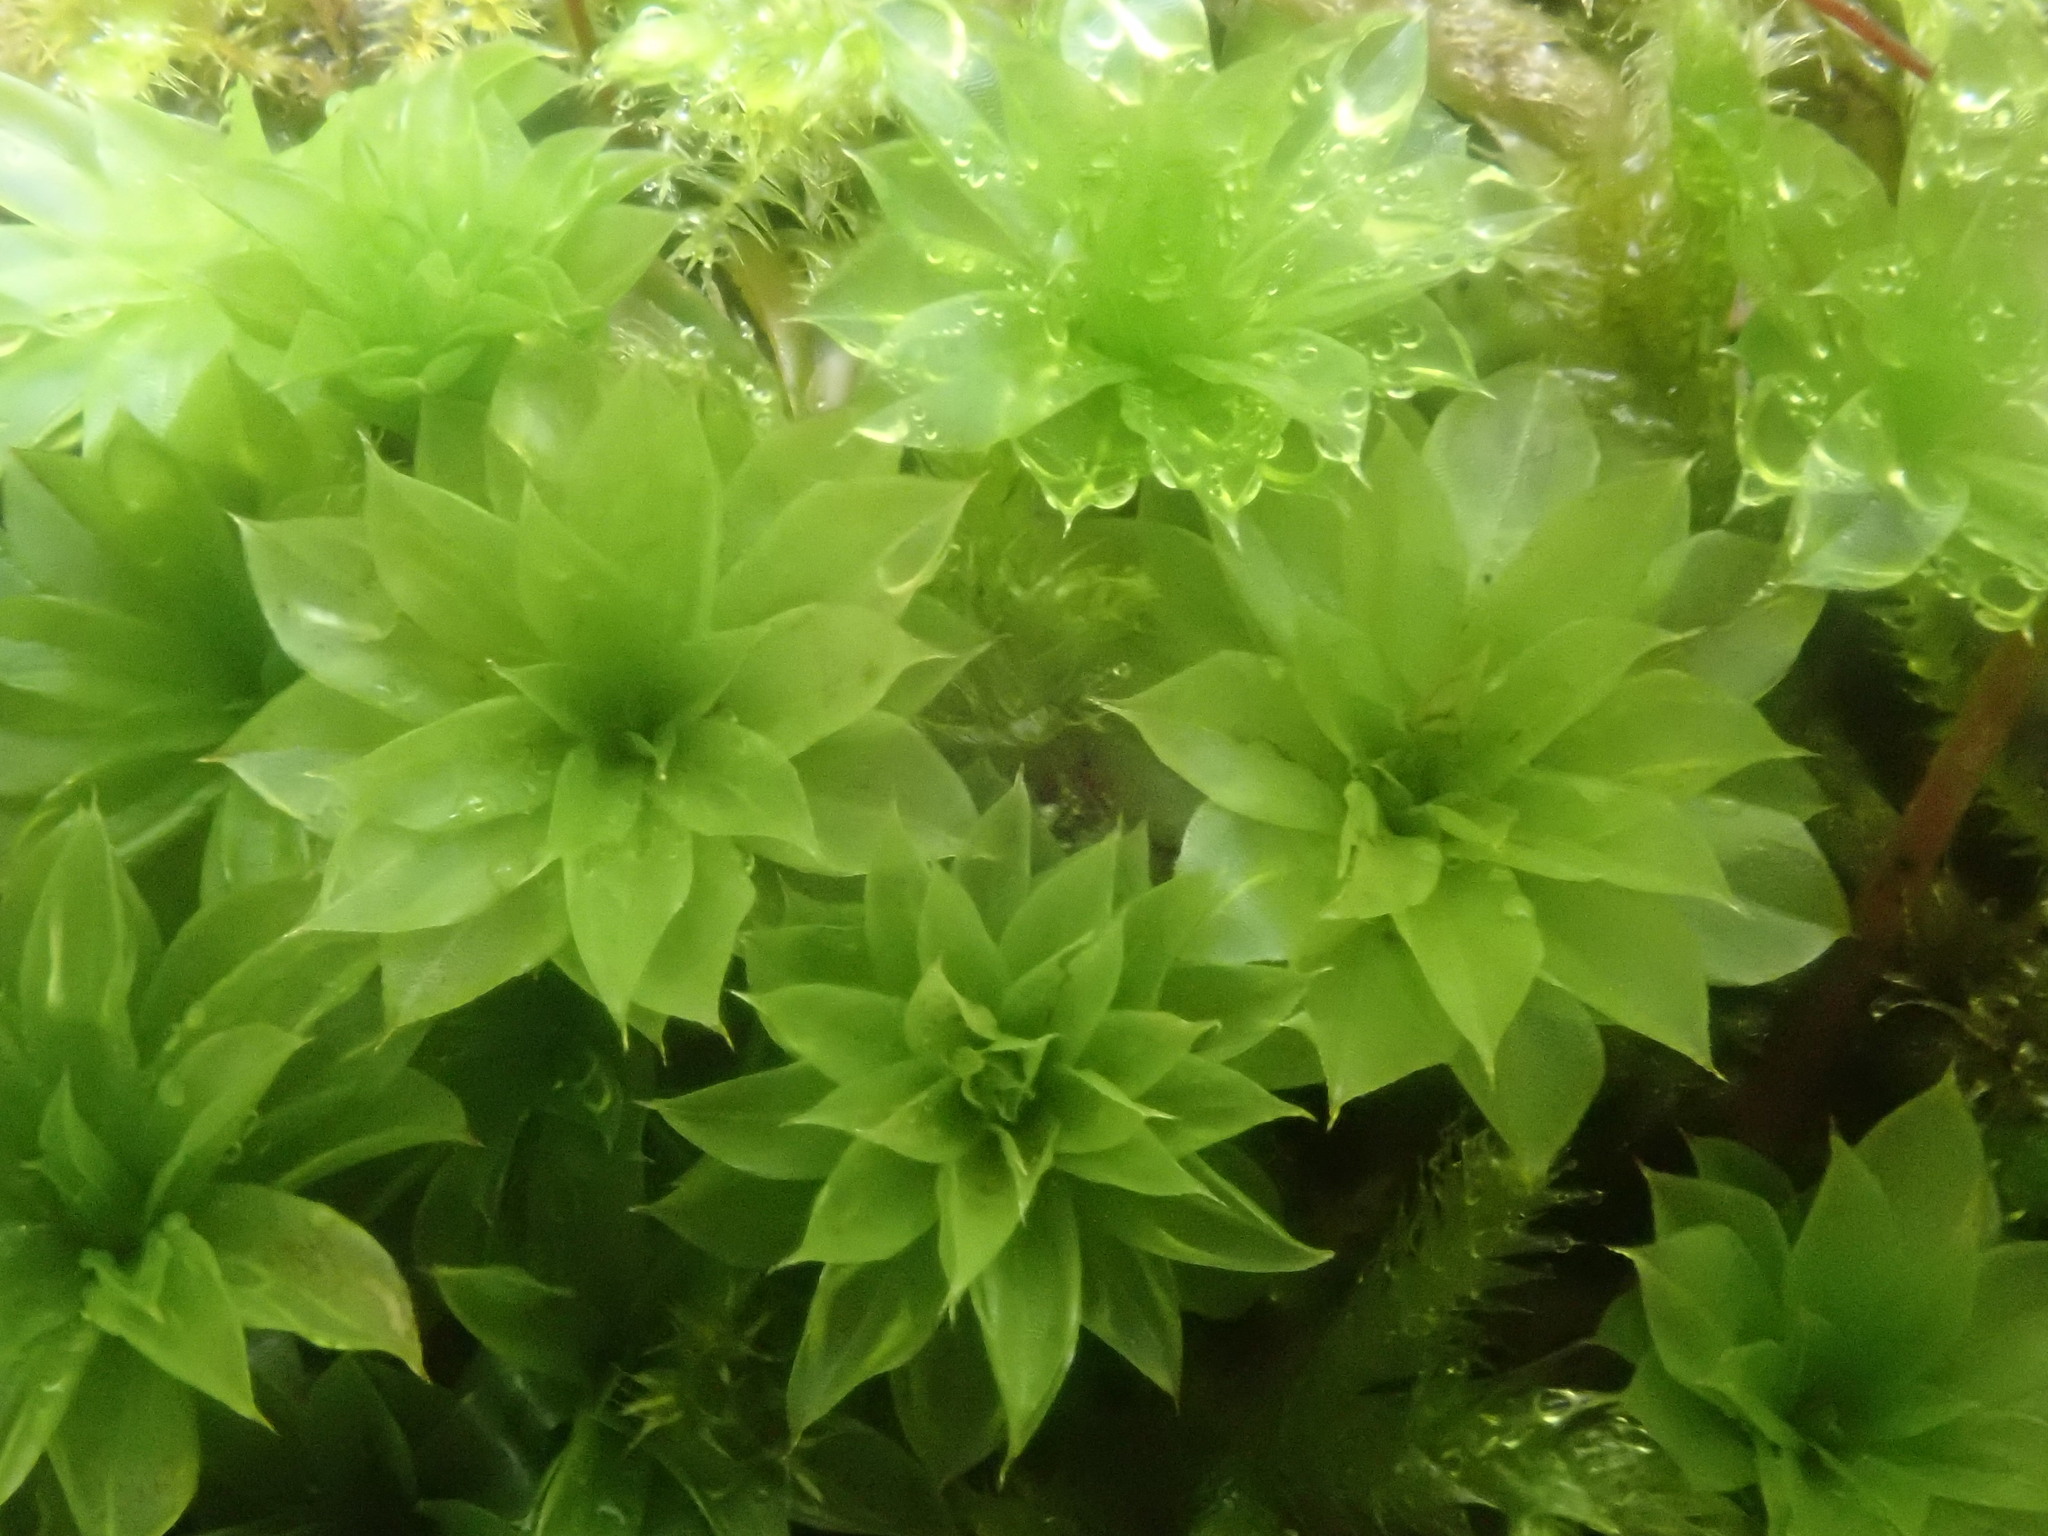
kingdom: Plantae
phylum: Bryophyta
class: Bryopsida
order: Bryales
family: Bryaceae
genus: Rhodobryum
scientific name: Rhodobryum ontariense
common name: Ontario rhodobryum moss
